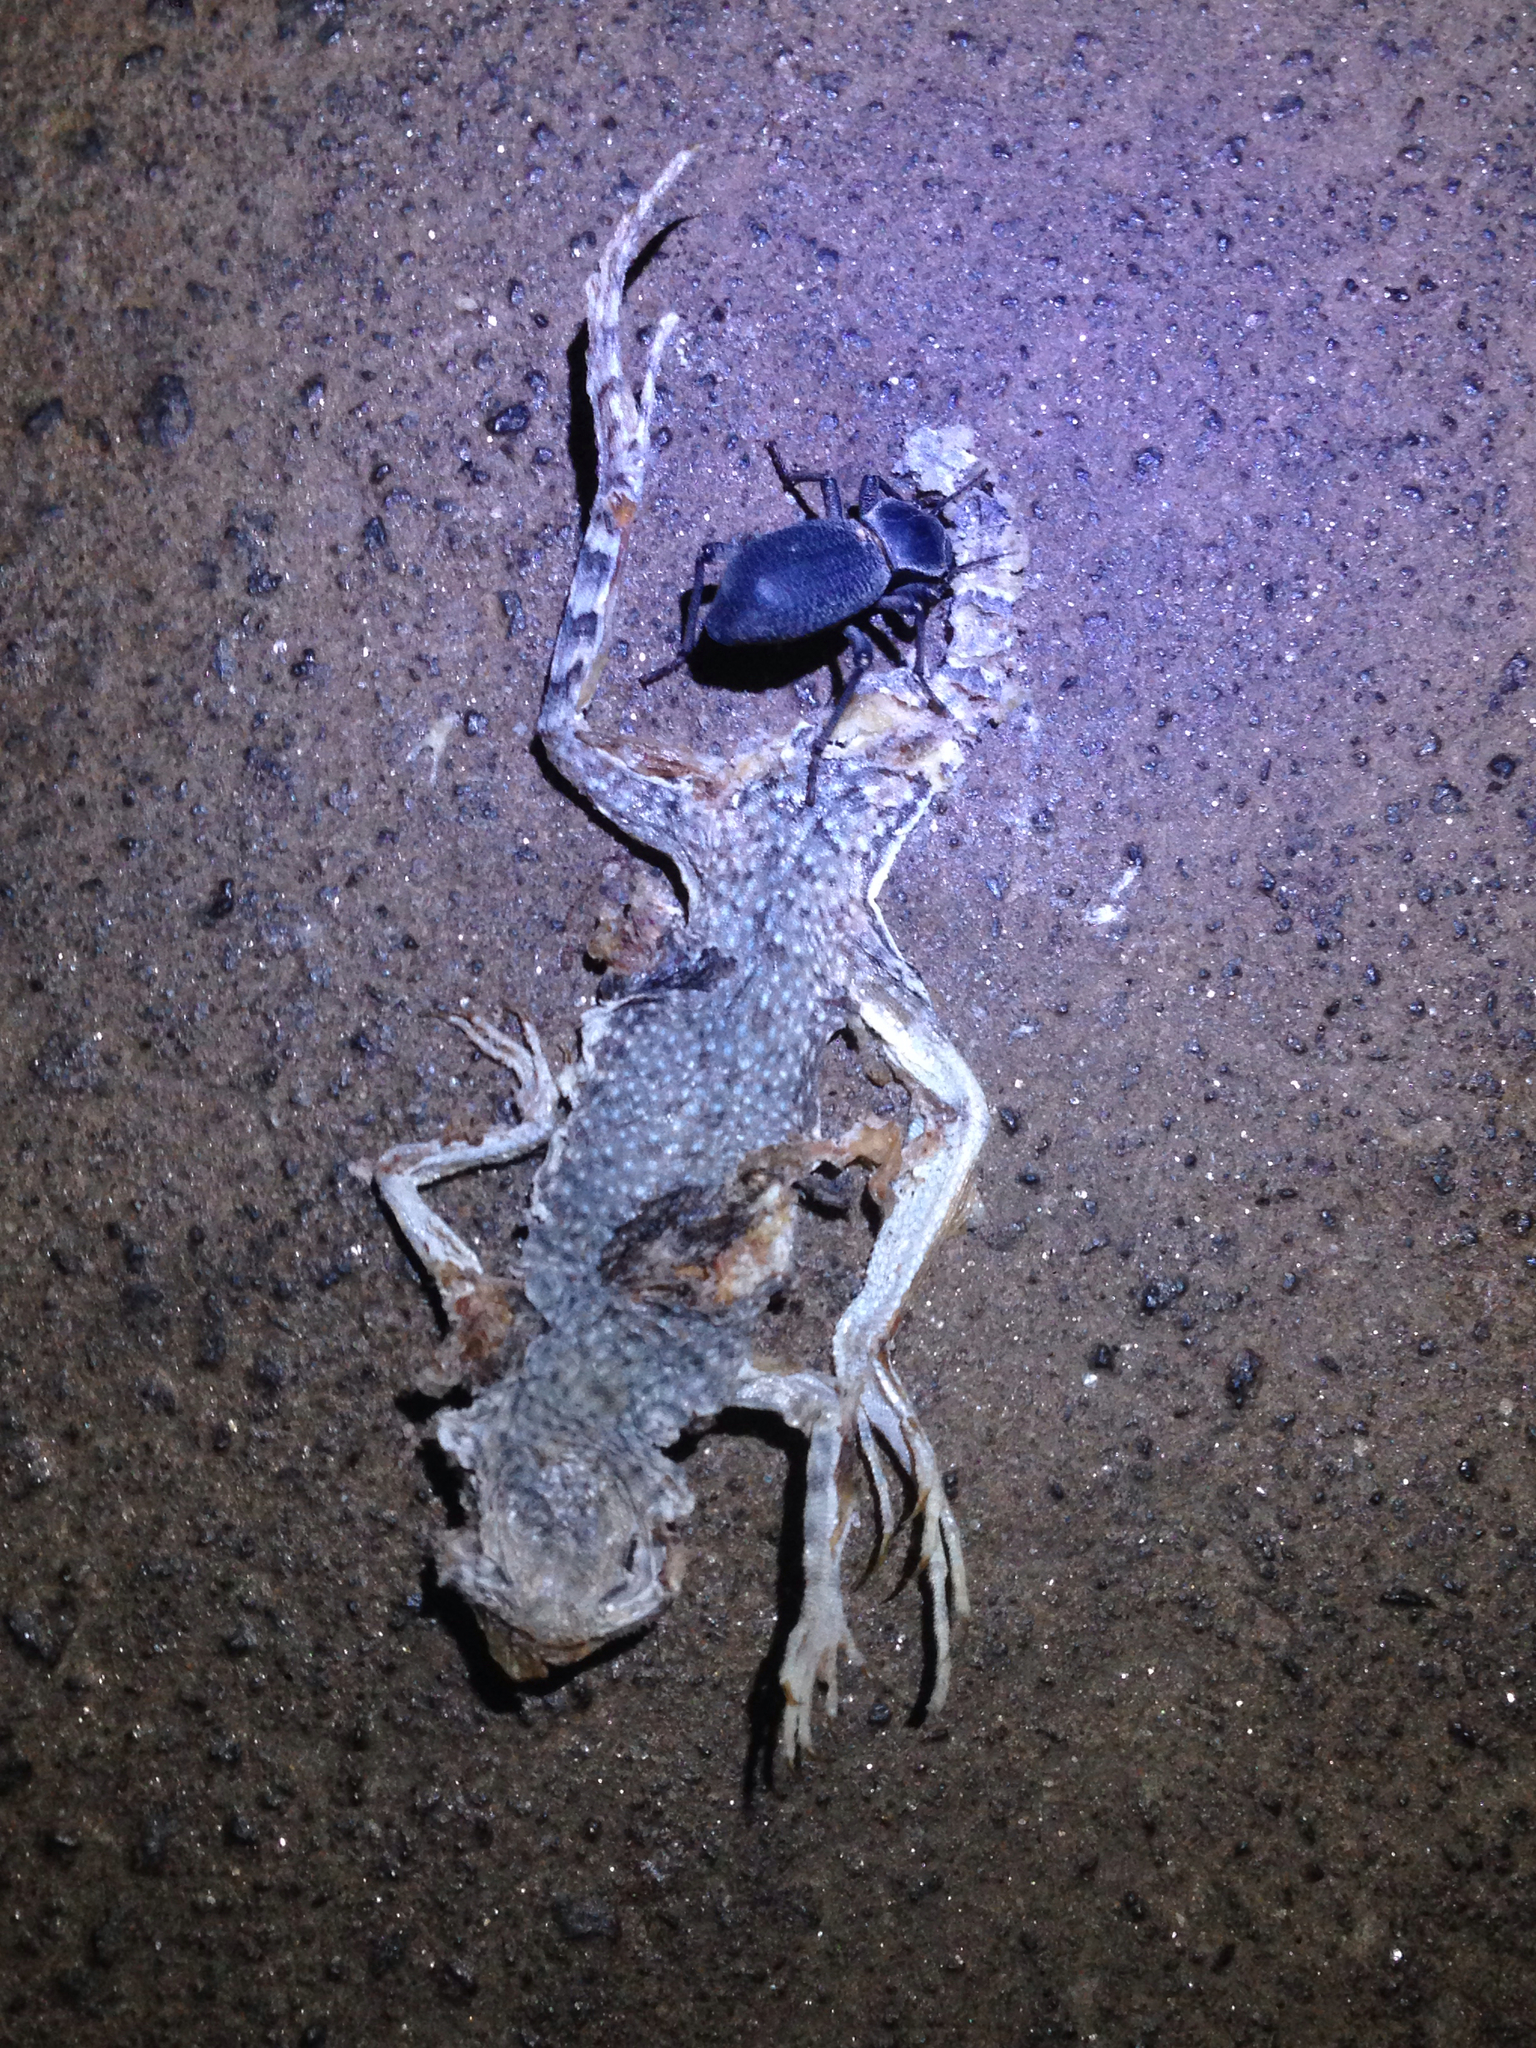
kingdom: Animalia
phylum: Chordata
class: Squamata
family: Phrynosomatidae
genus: Callisaurus
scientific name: Callisaurus draconoides
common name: Zebra-tailed lizard
